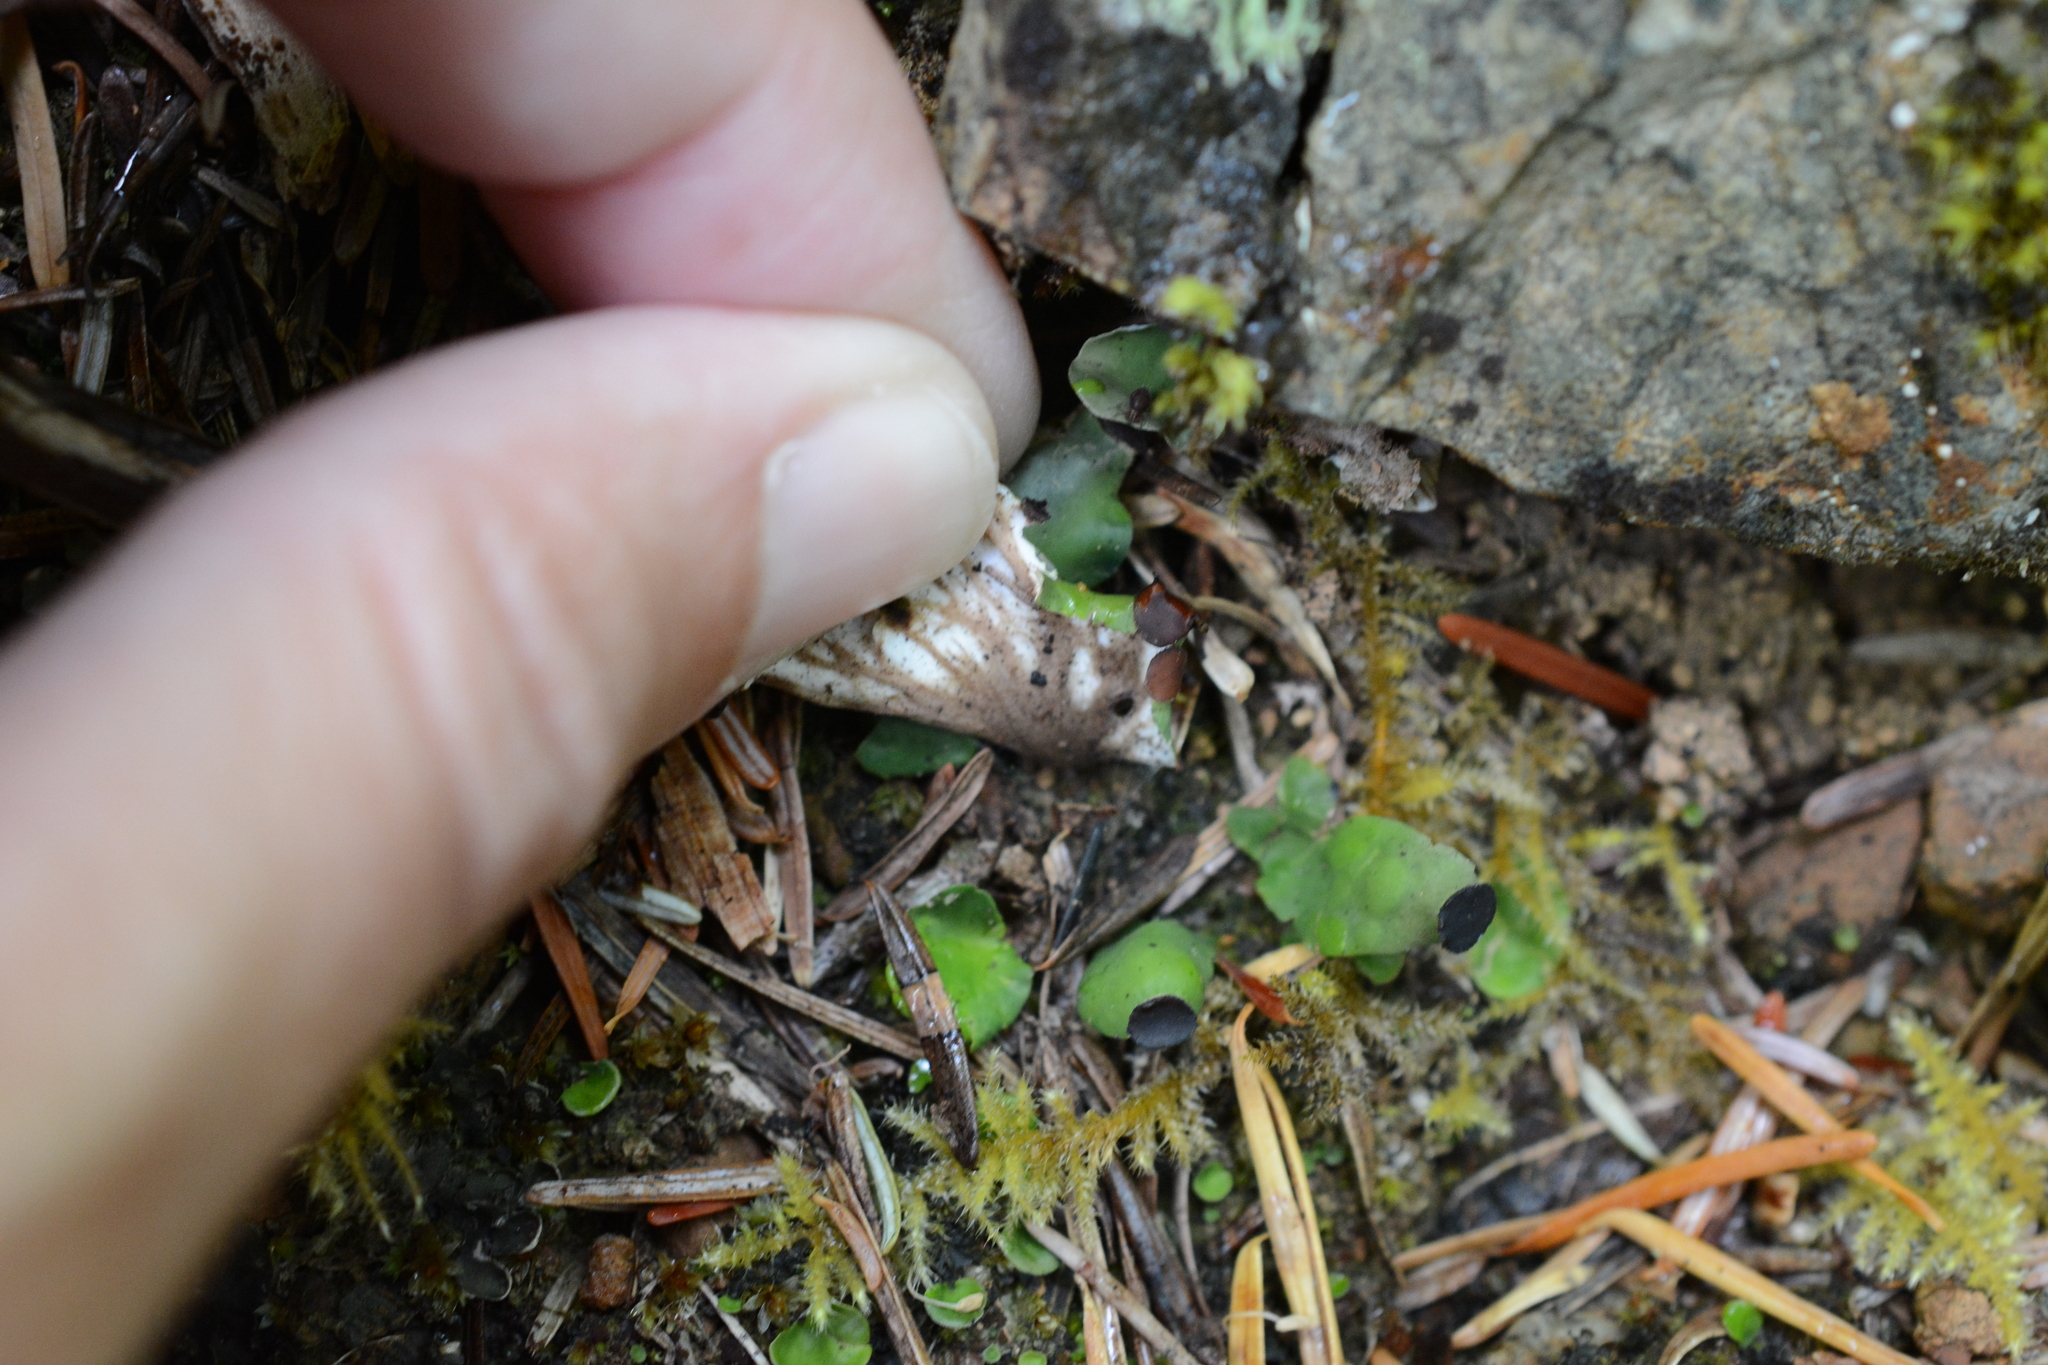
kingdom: Fungi
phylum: Ascomycota
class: Lecanoromycetes
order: Peltigerales
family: Peltigeraceae
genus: Peltigera
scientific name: Peltigera venosa
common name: Pixie gowns lichen
